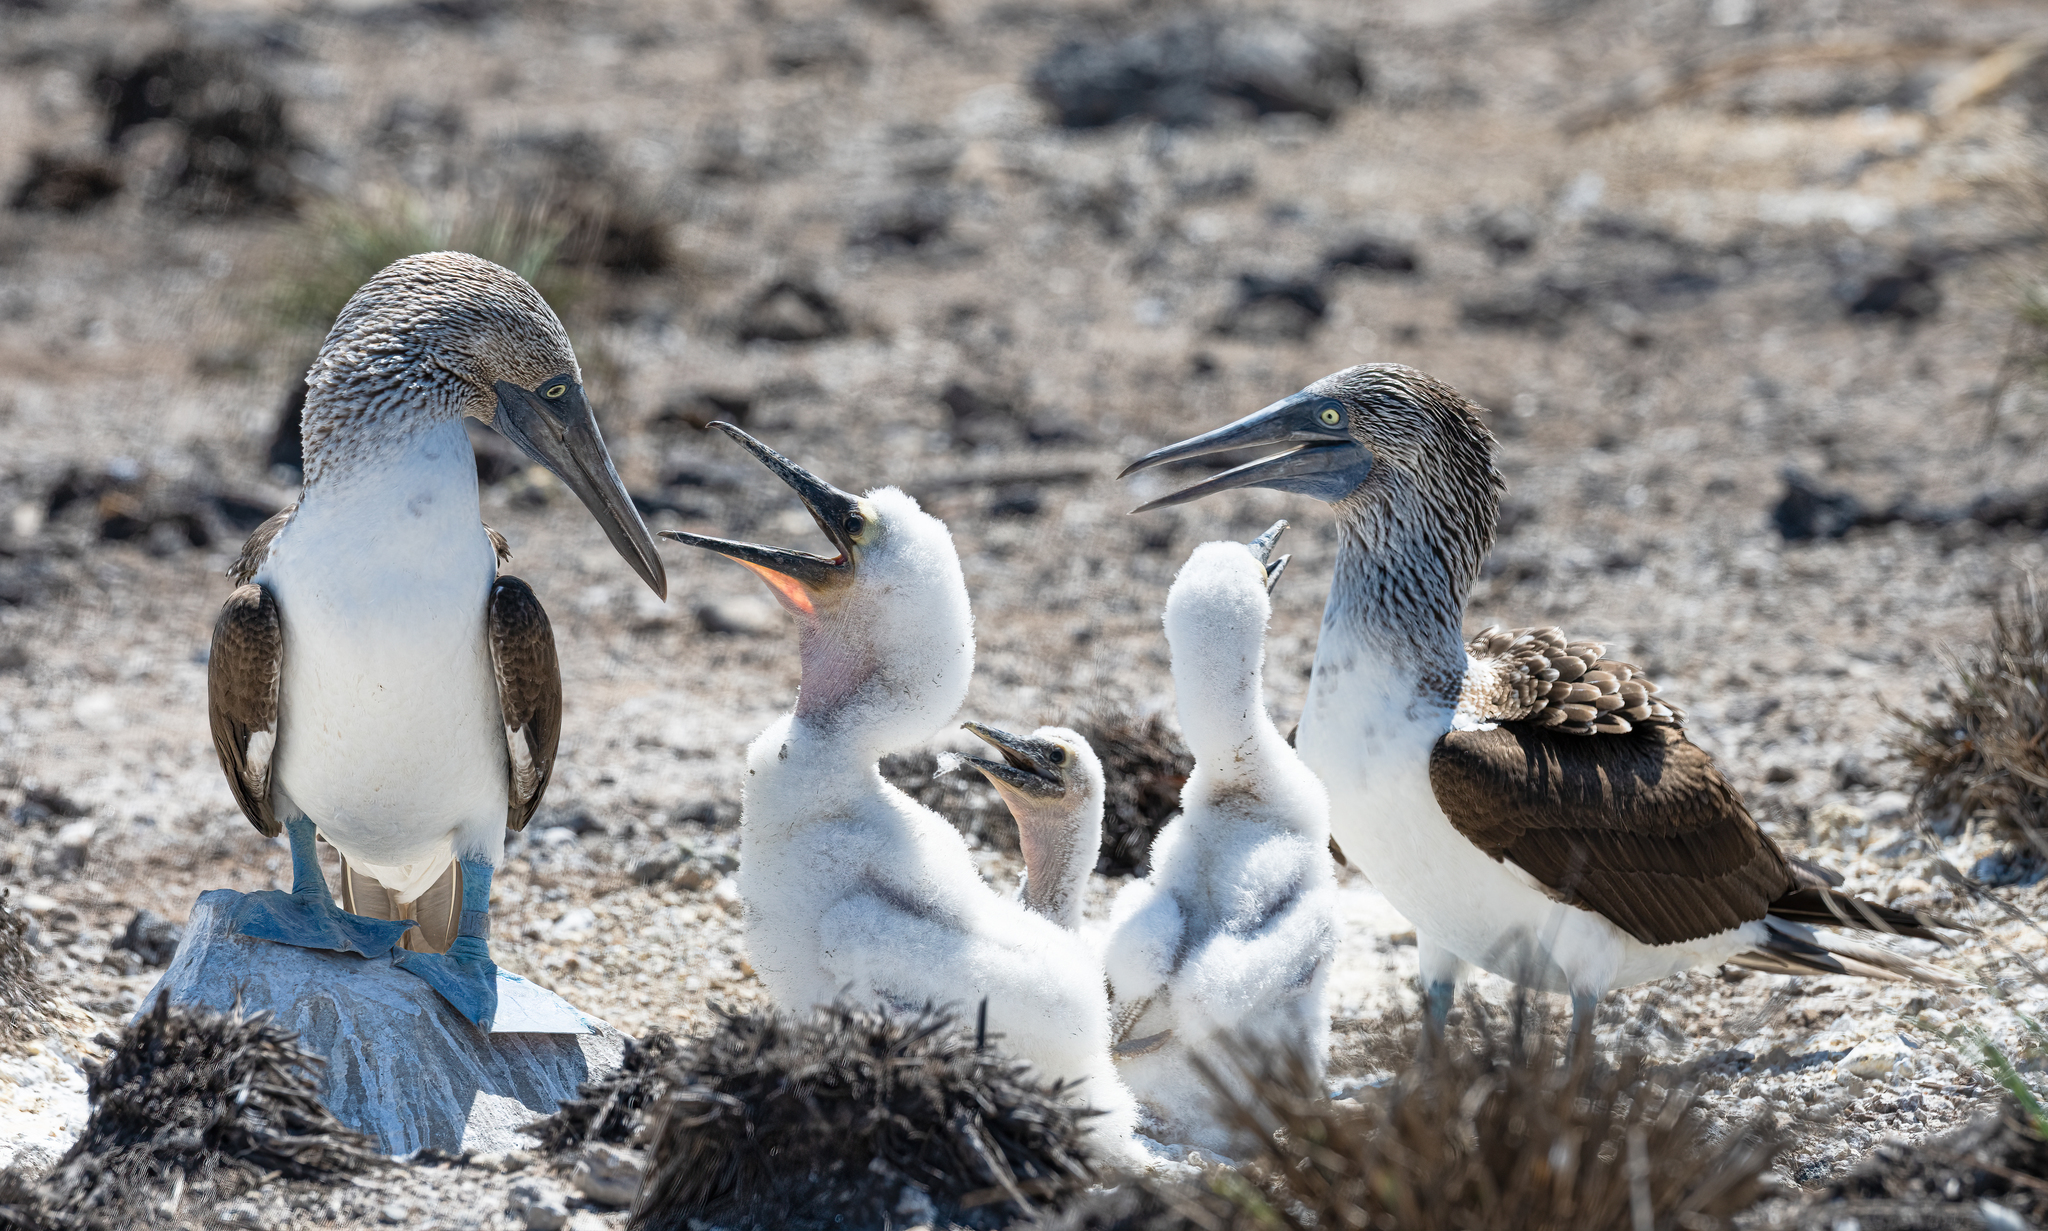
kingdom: Animalia
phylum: Chordata
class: Aves
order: Suliformes
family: Sulidae
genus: Sula
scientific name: Sula nebouxii
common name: Blue-footed booby
